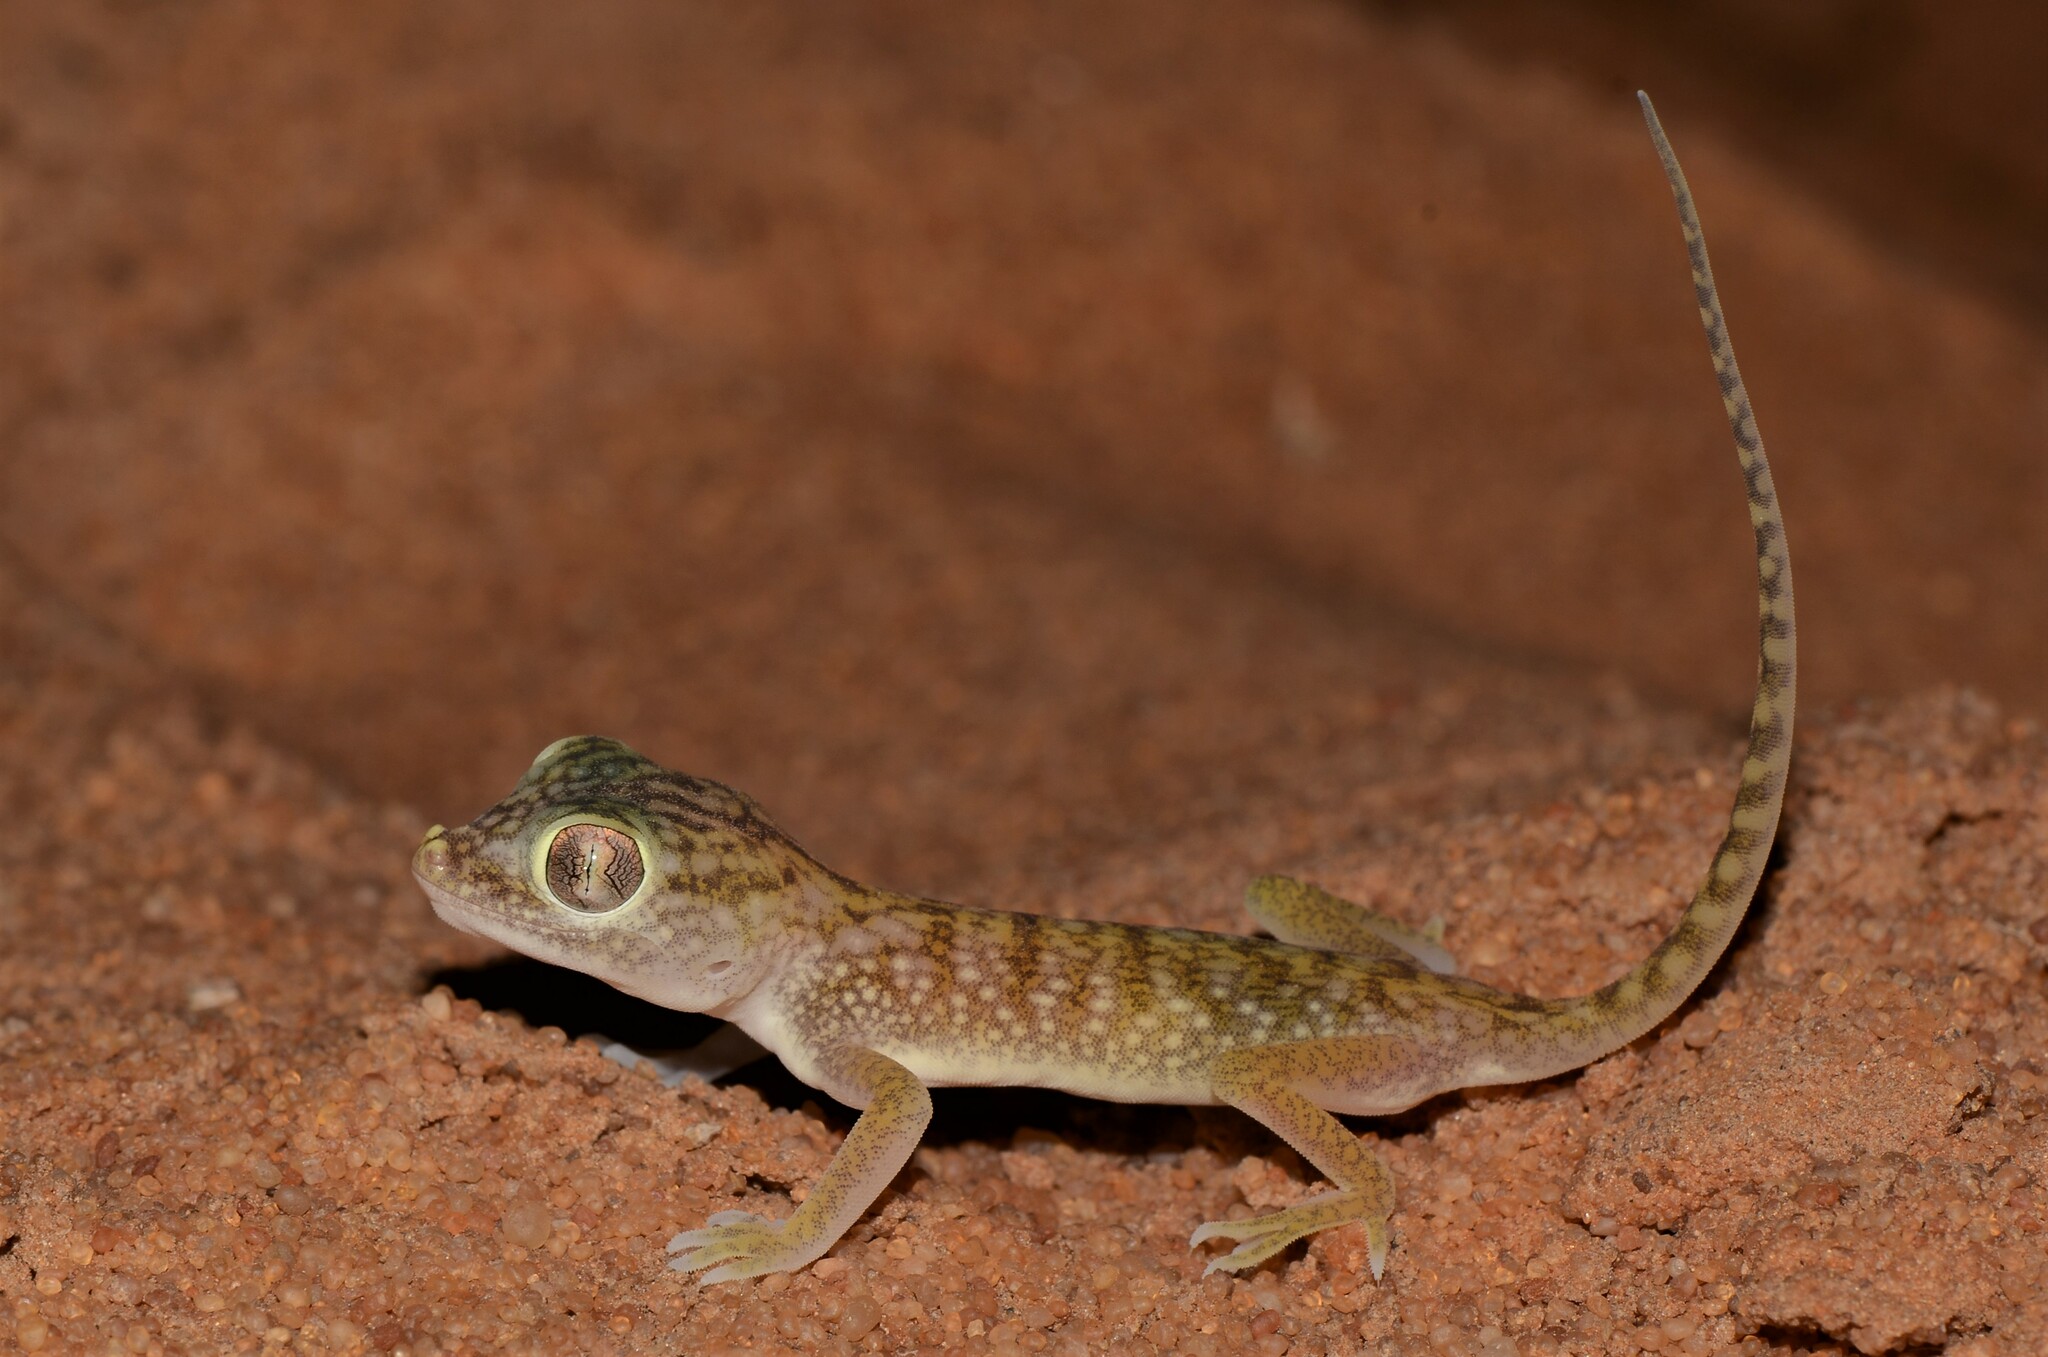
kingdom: Animalia
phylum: Chordata
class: Squamata
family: Gekkonidae
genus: Stenodactylus
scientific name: Stenodactylus doriae
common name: Dune sand gecko
